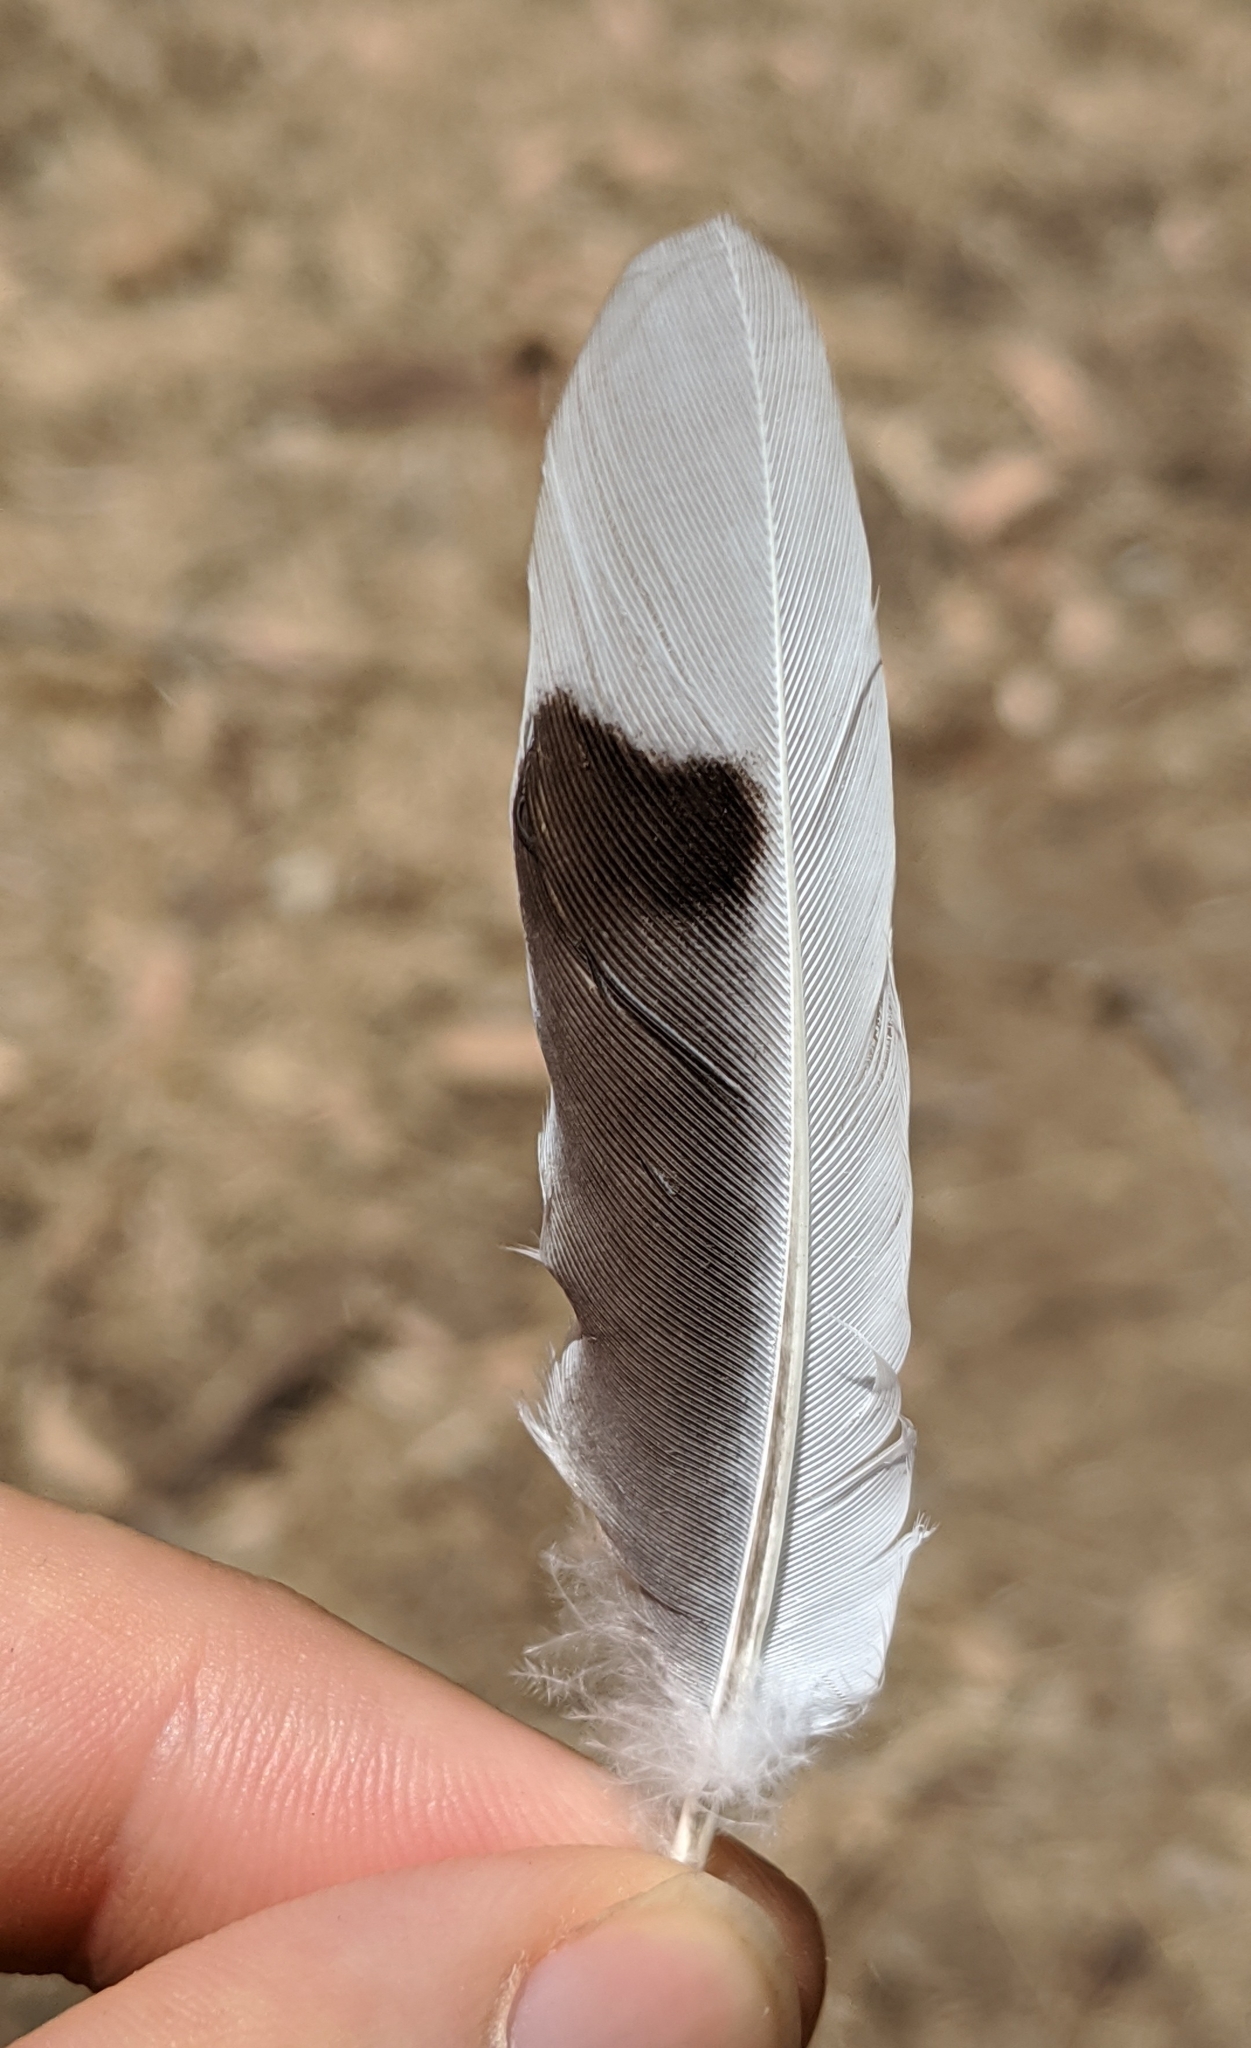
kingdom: Animalia
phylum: Chordata
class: Aves
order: Columbiformes
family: Columbidae
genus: Zenaida
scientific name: Zenaida macroura
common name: Mourning dove
